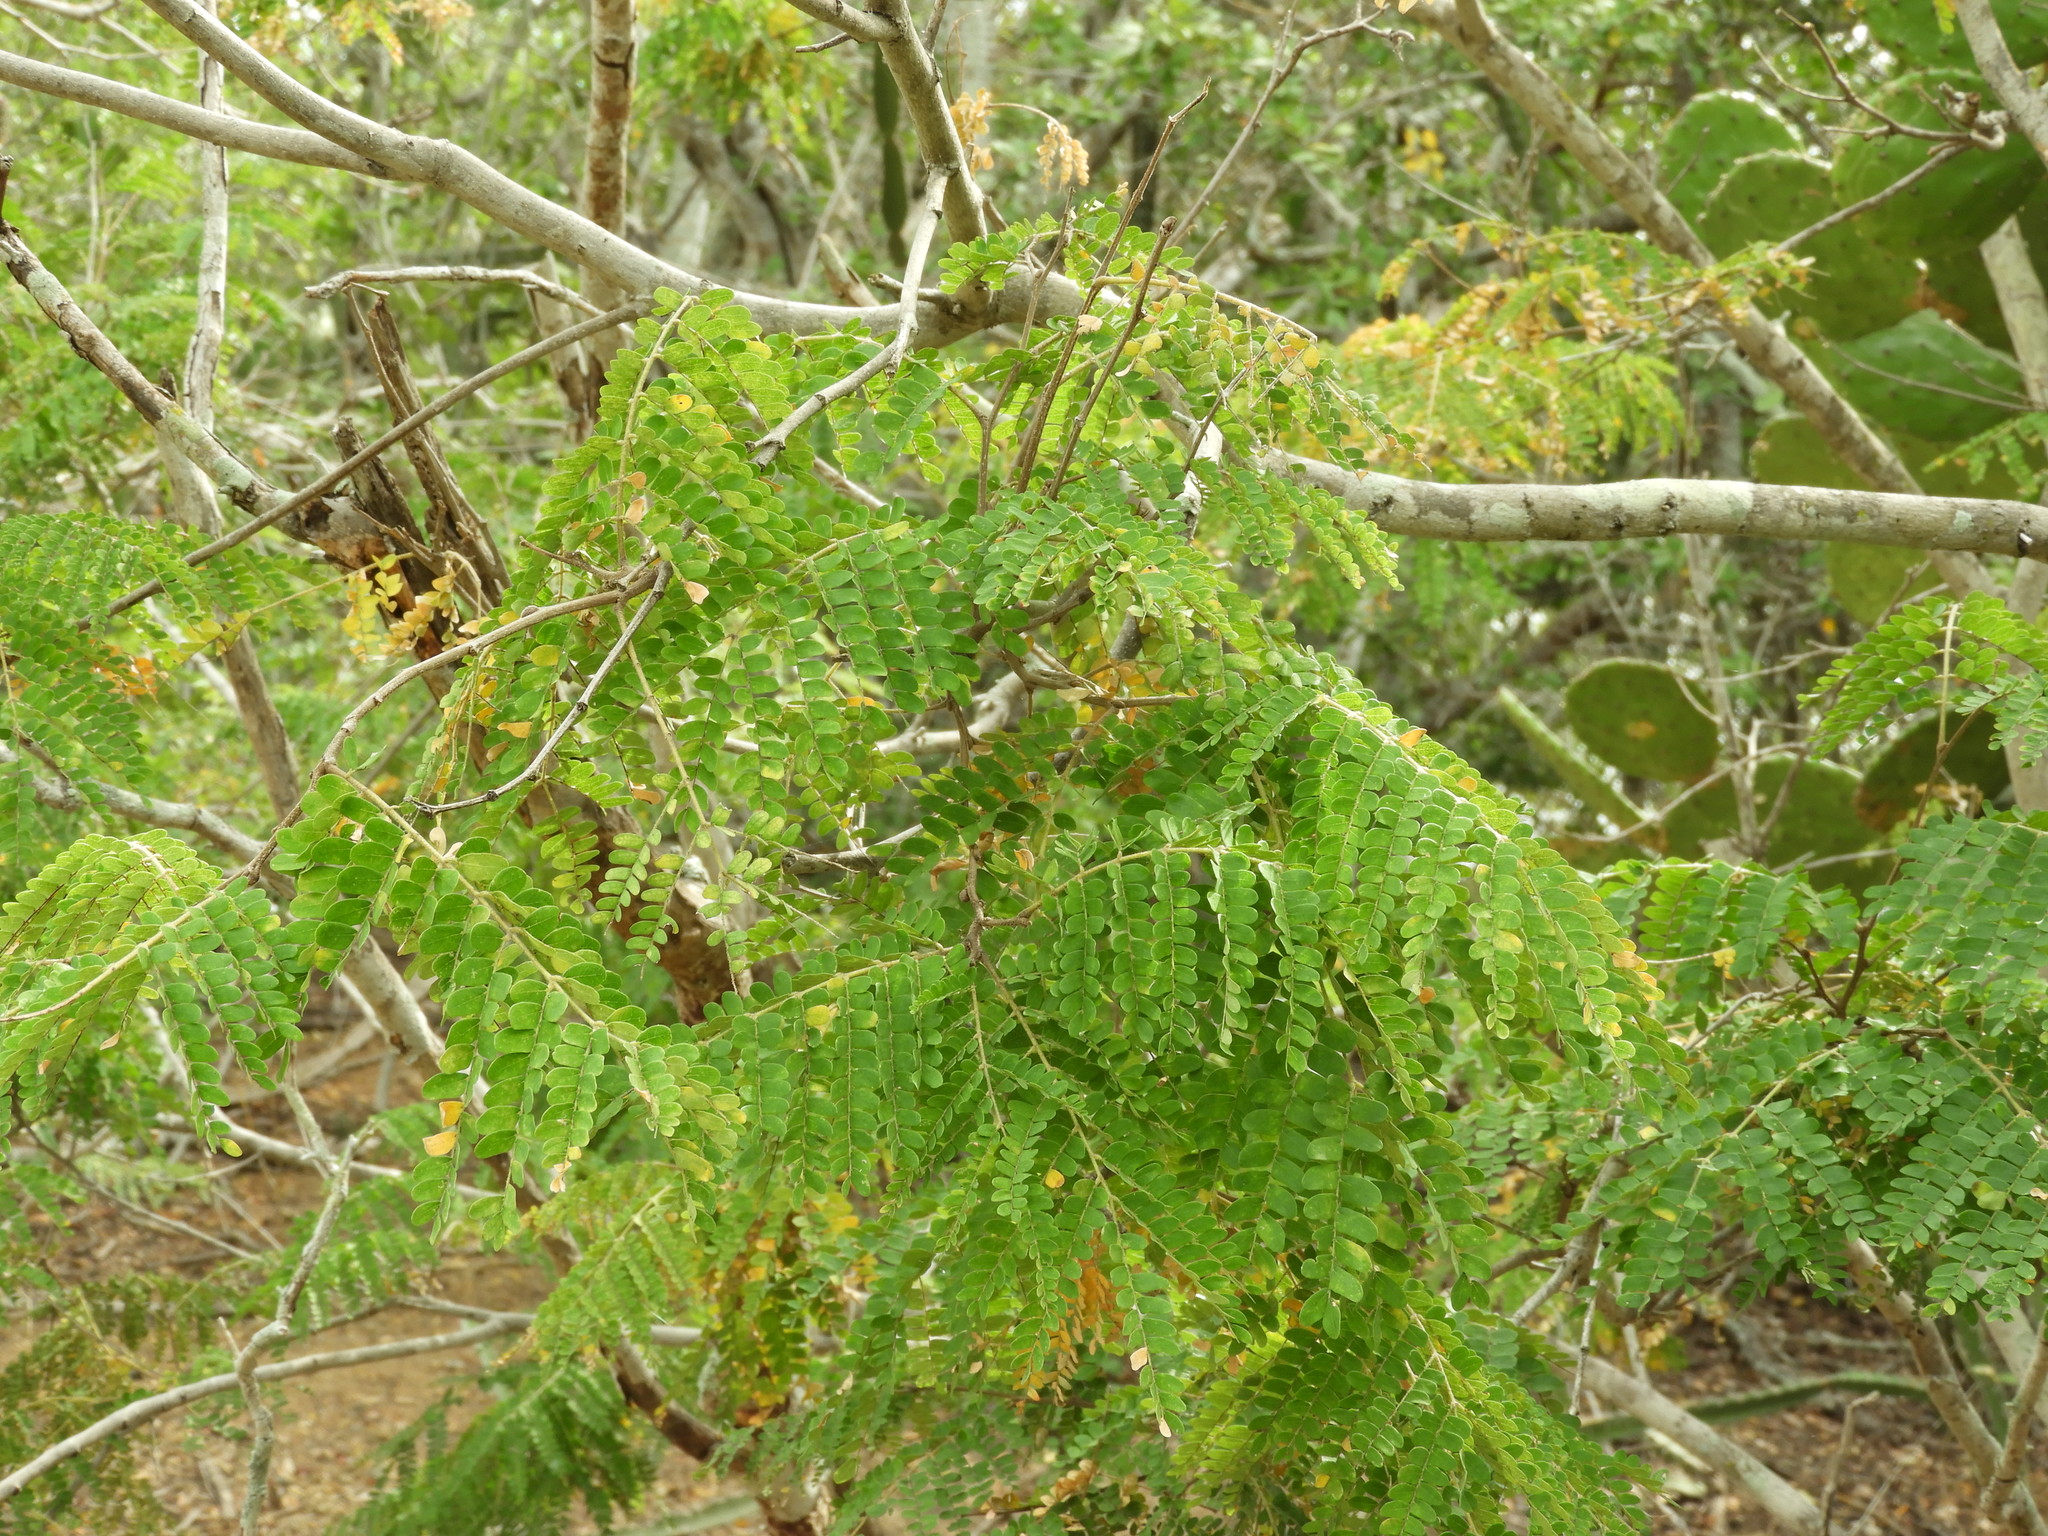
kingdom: Plantae
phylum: Tracheophyta
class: Magnoliopsida
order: Fabales
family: Fabaceae
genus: Cenostigma
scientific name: Cenostigma eriostachys
